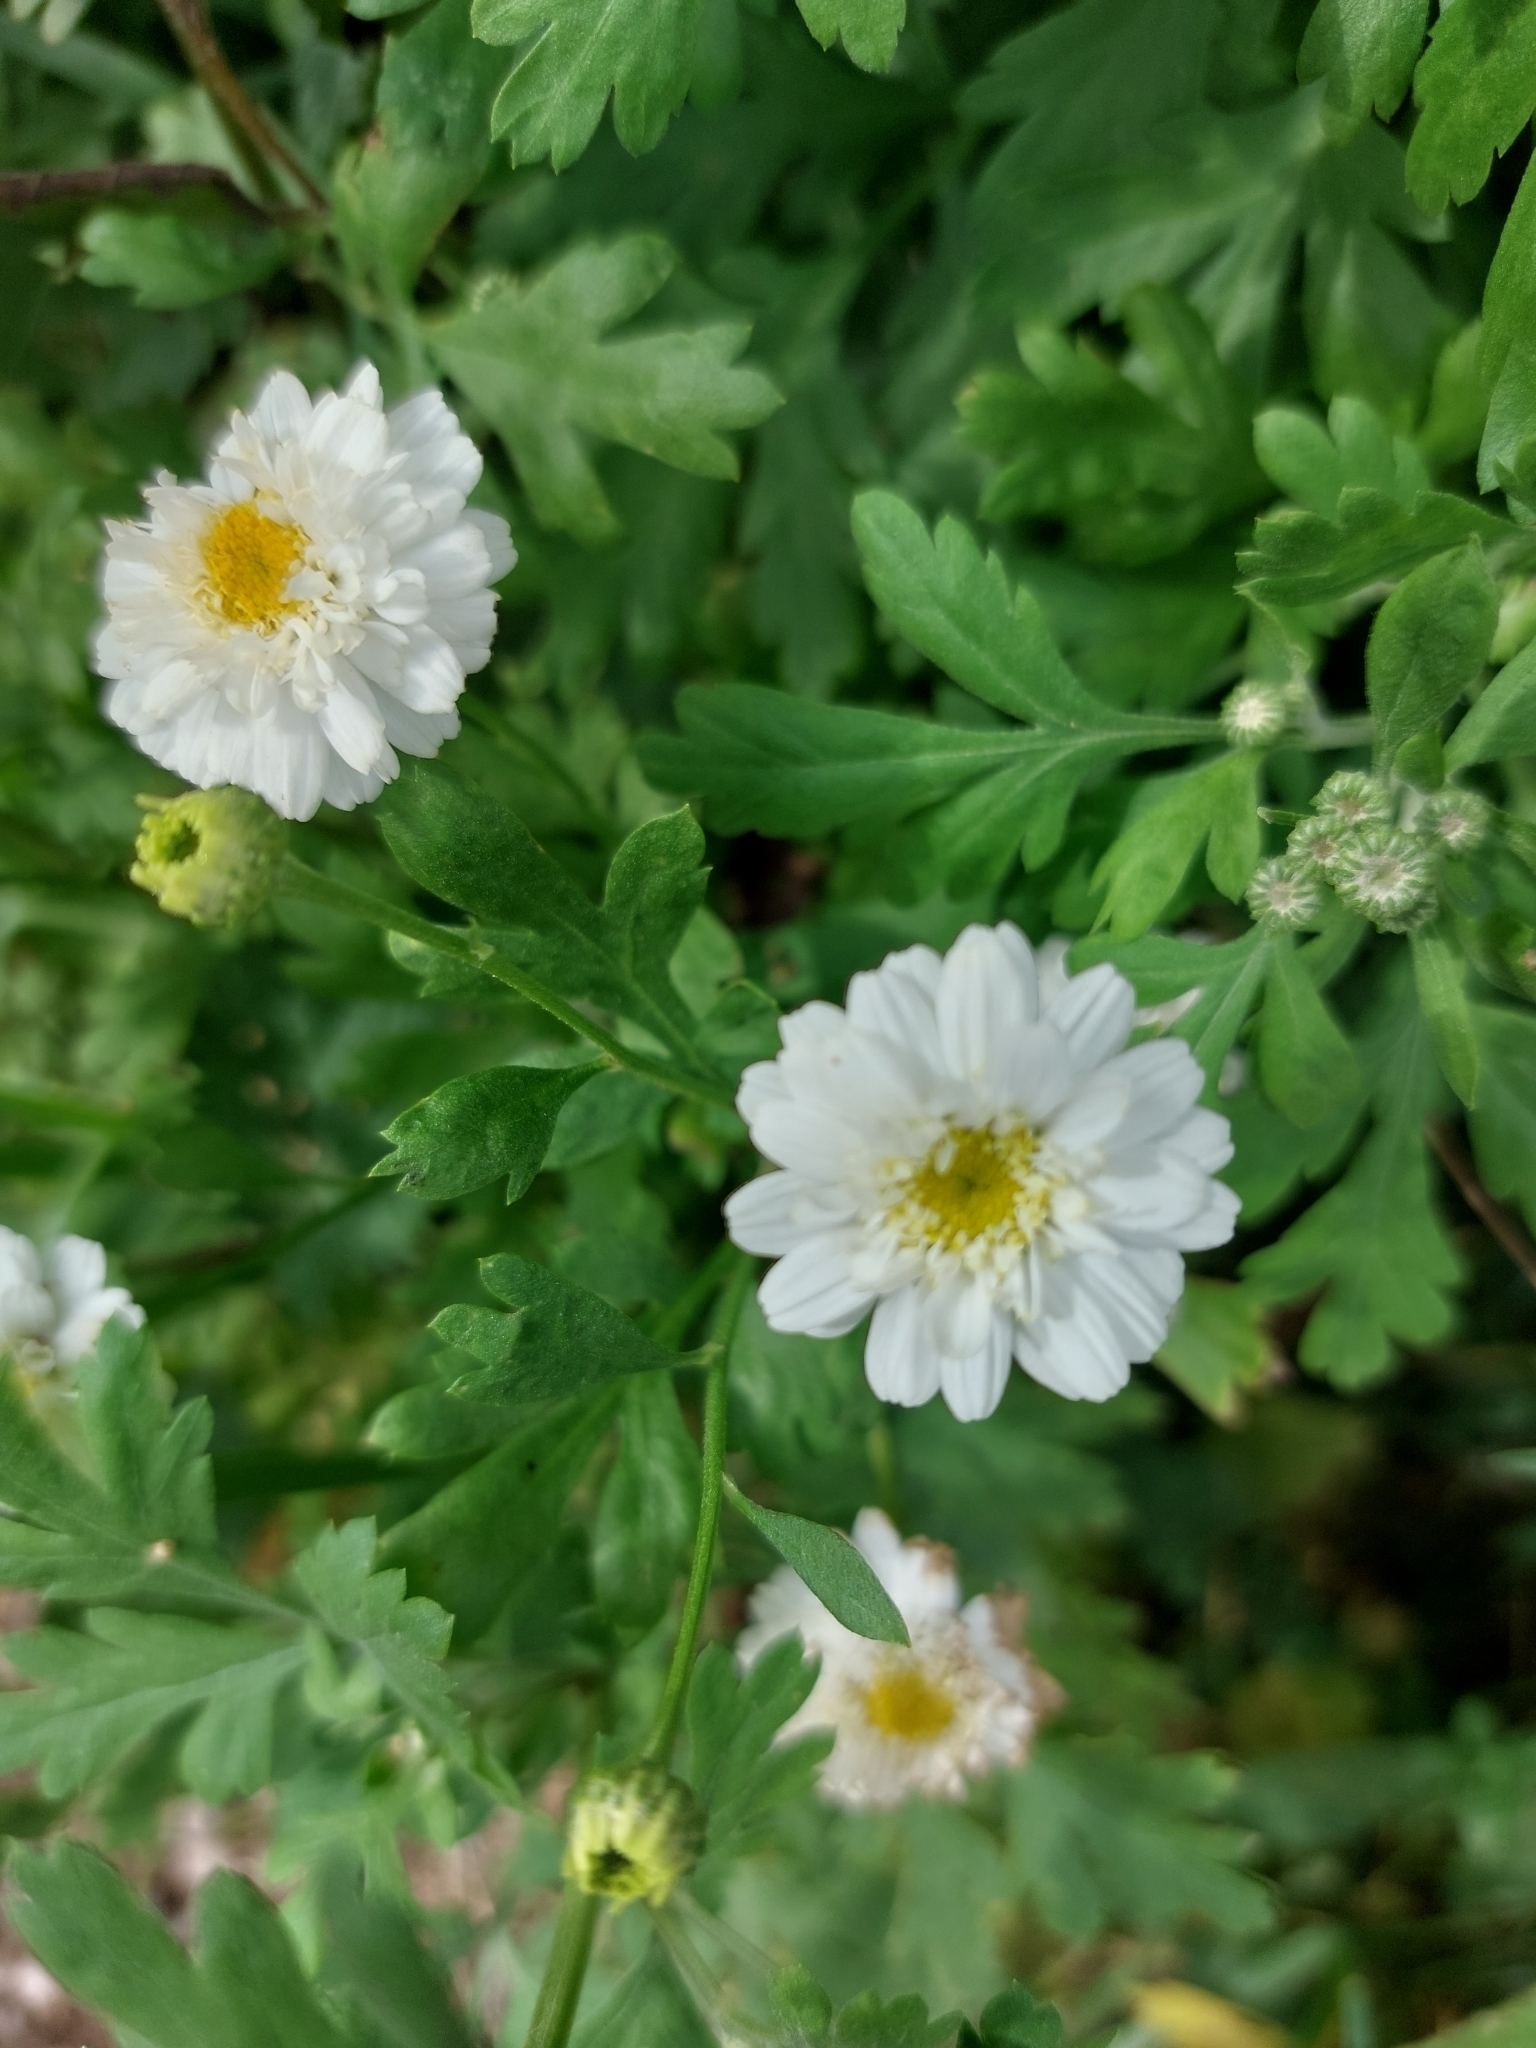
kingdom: Plantae
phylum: Tracheophyta
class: Magnoliopsida
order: Asterales
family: Asteraceae
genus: Tanacetum
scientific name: Tanacetum parthenium
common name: Feverfew
